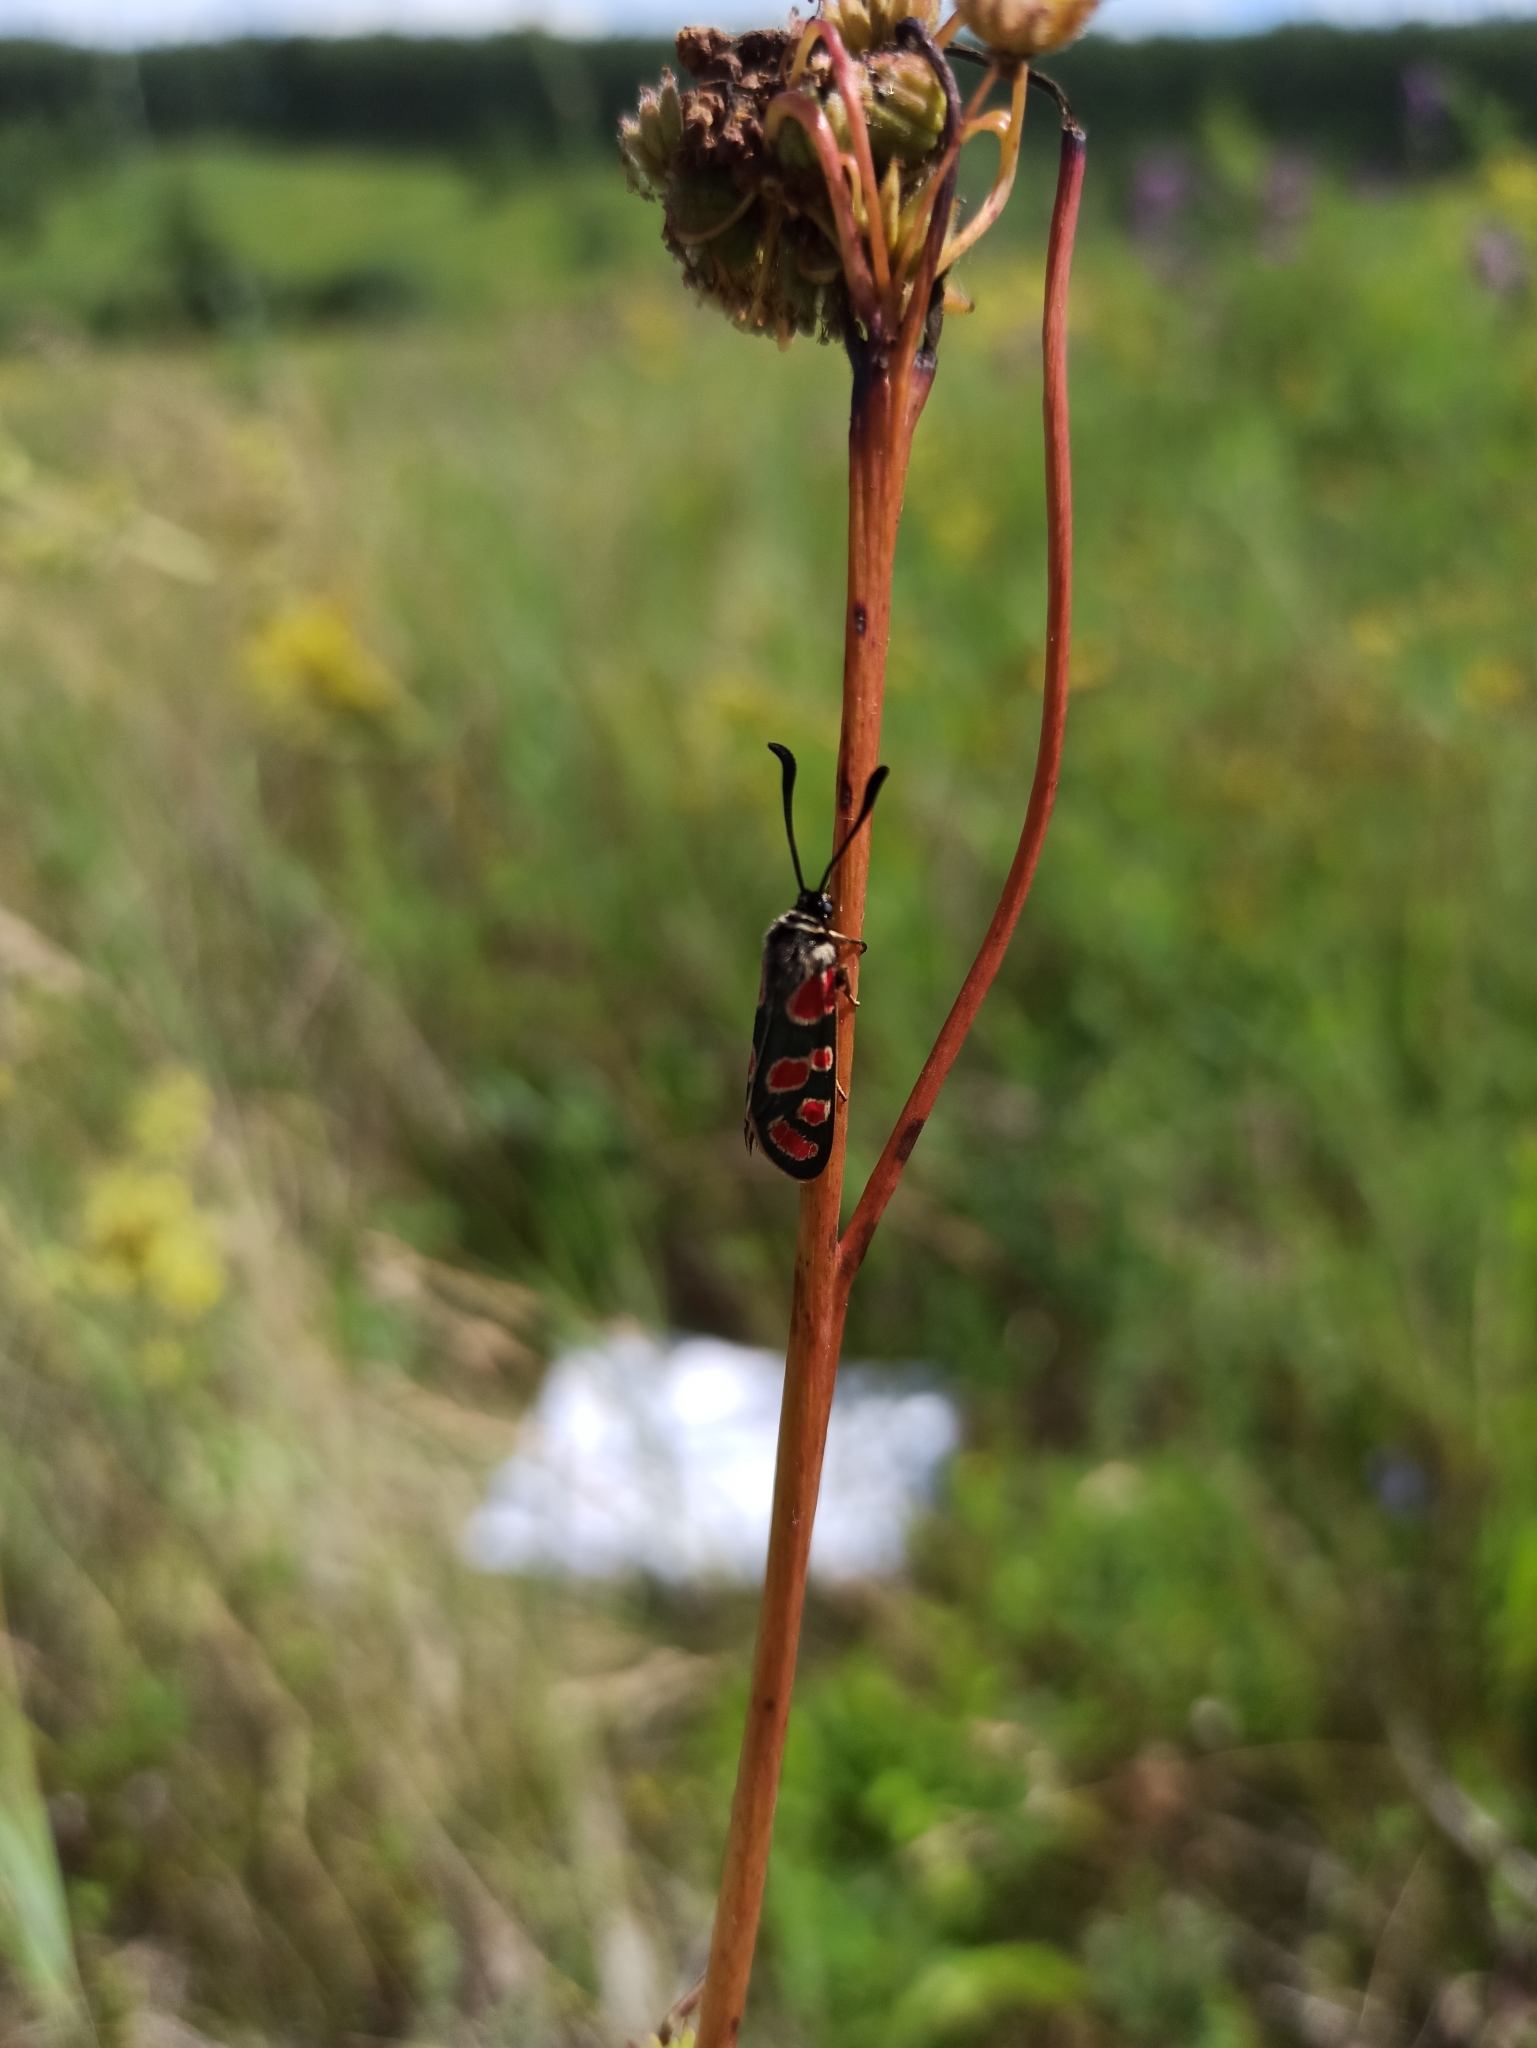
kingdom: Animalia
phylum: Arthropoda
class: Insecta
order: Lepidoptera
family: Zygaenidae
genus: Zygaena
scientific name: Zygaena carniolica
